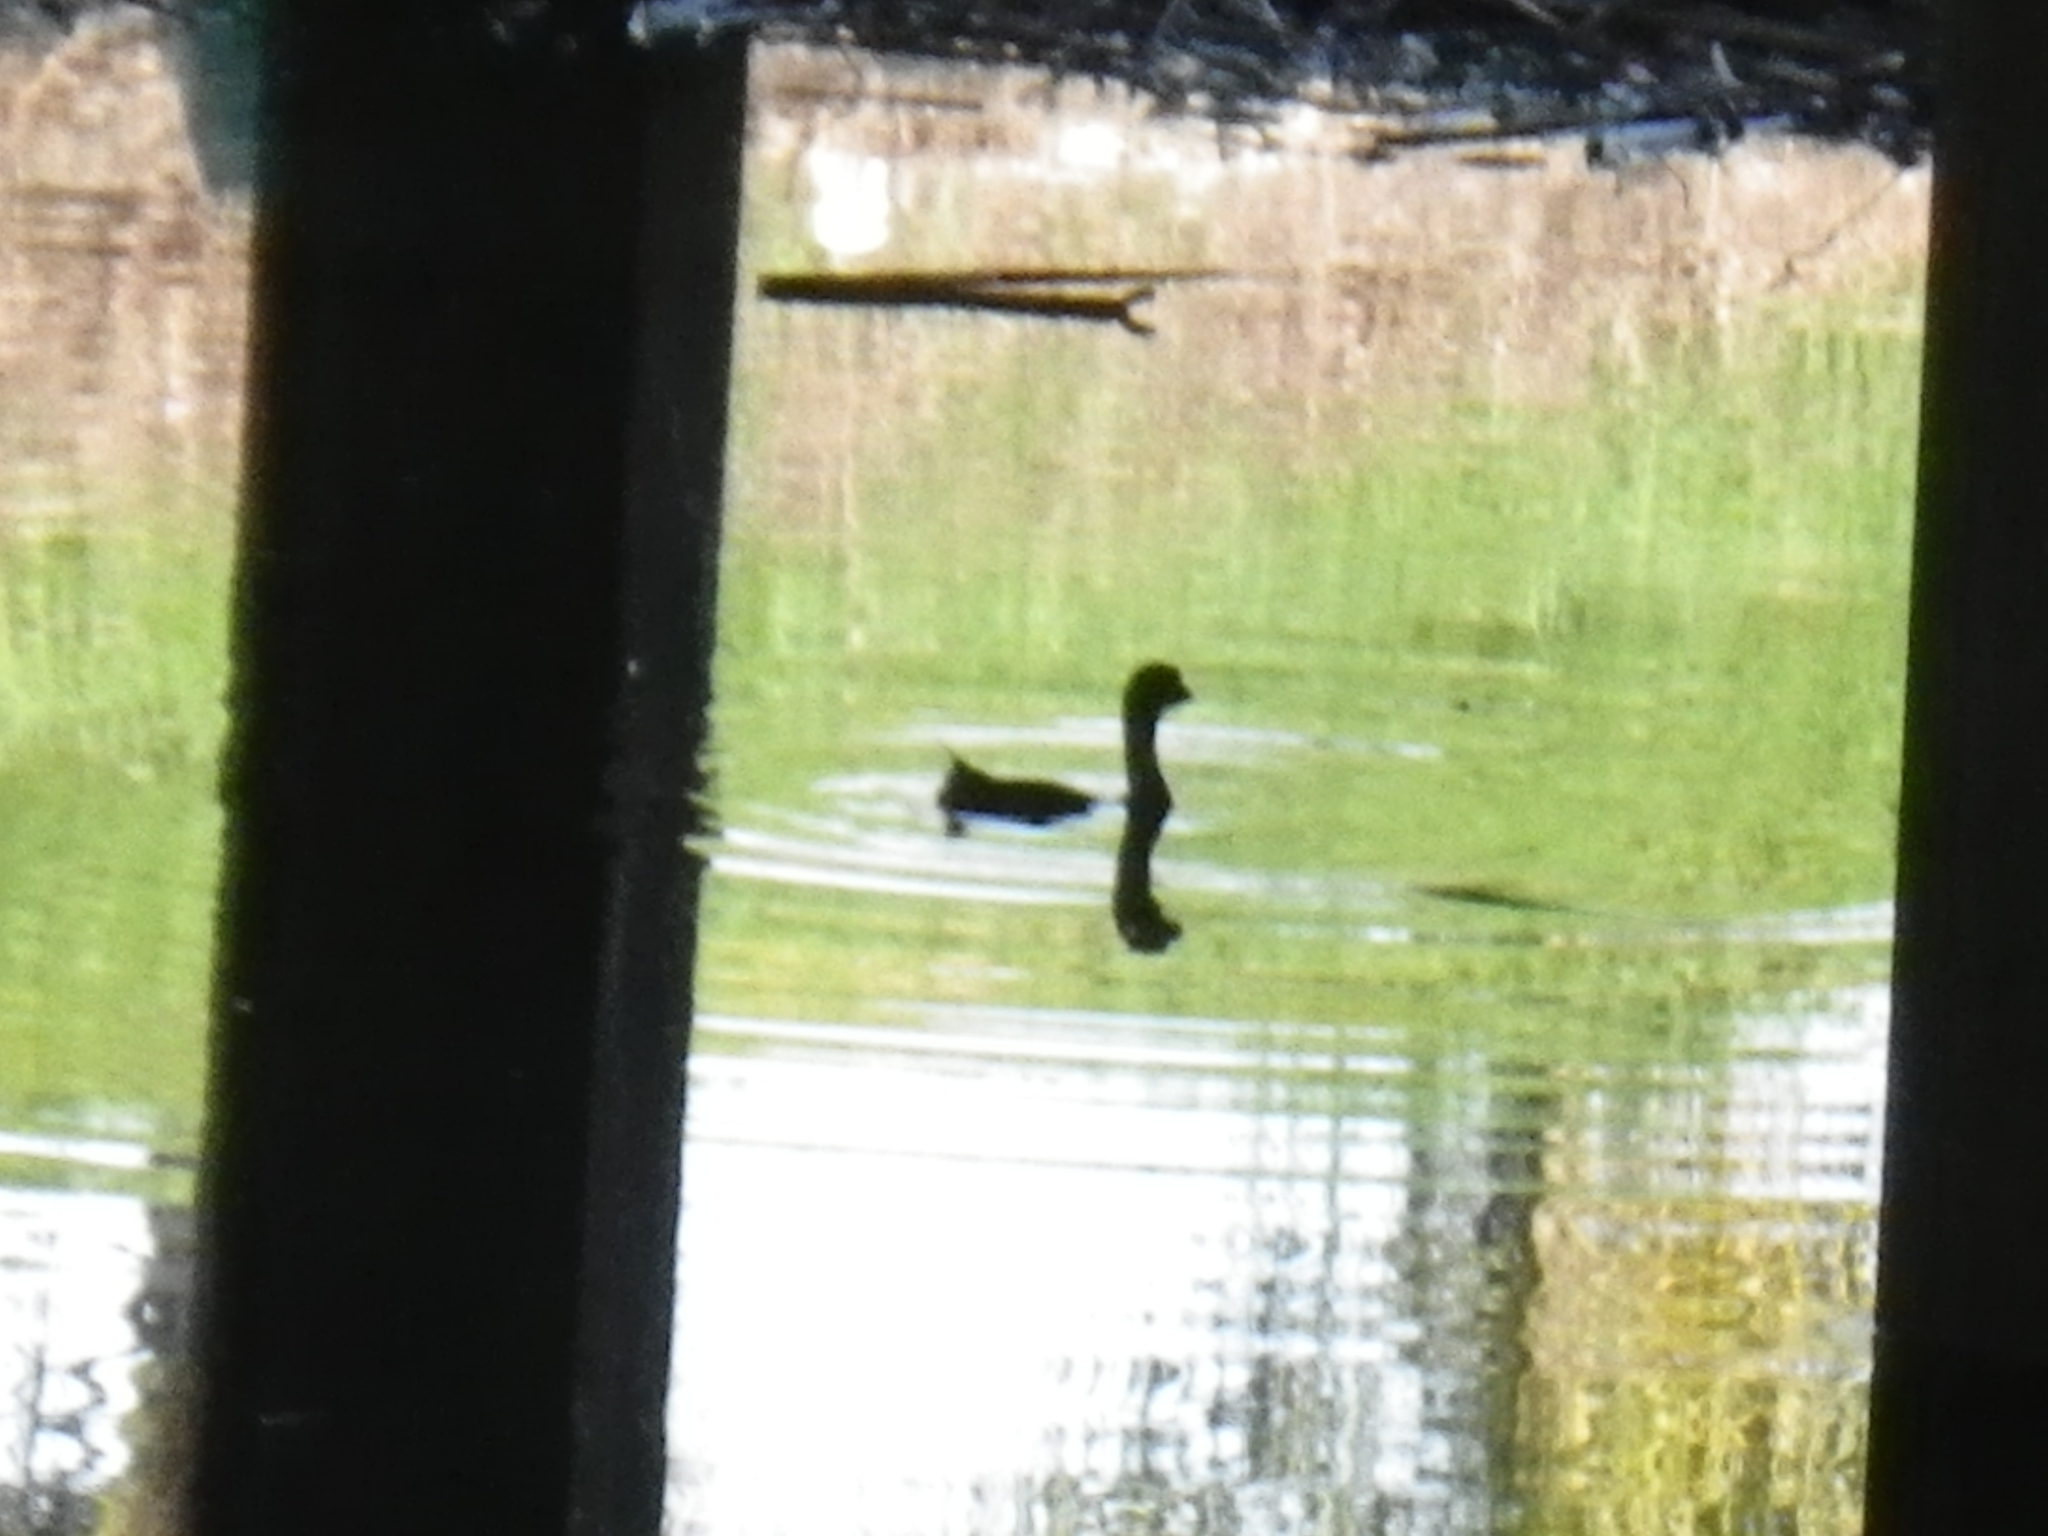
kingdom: Animalia
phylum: Chordata
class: Aves
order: Podicipediformes
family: Podicipedidae
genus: Podilymbus
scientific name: Podilymbus podiceps
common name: Pied-billed grebe
